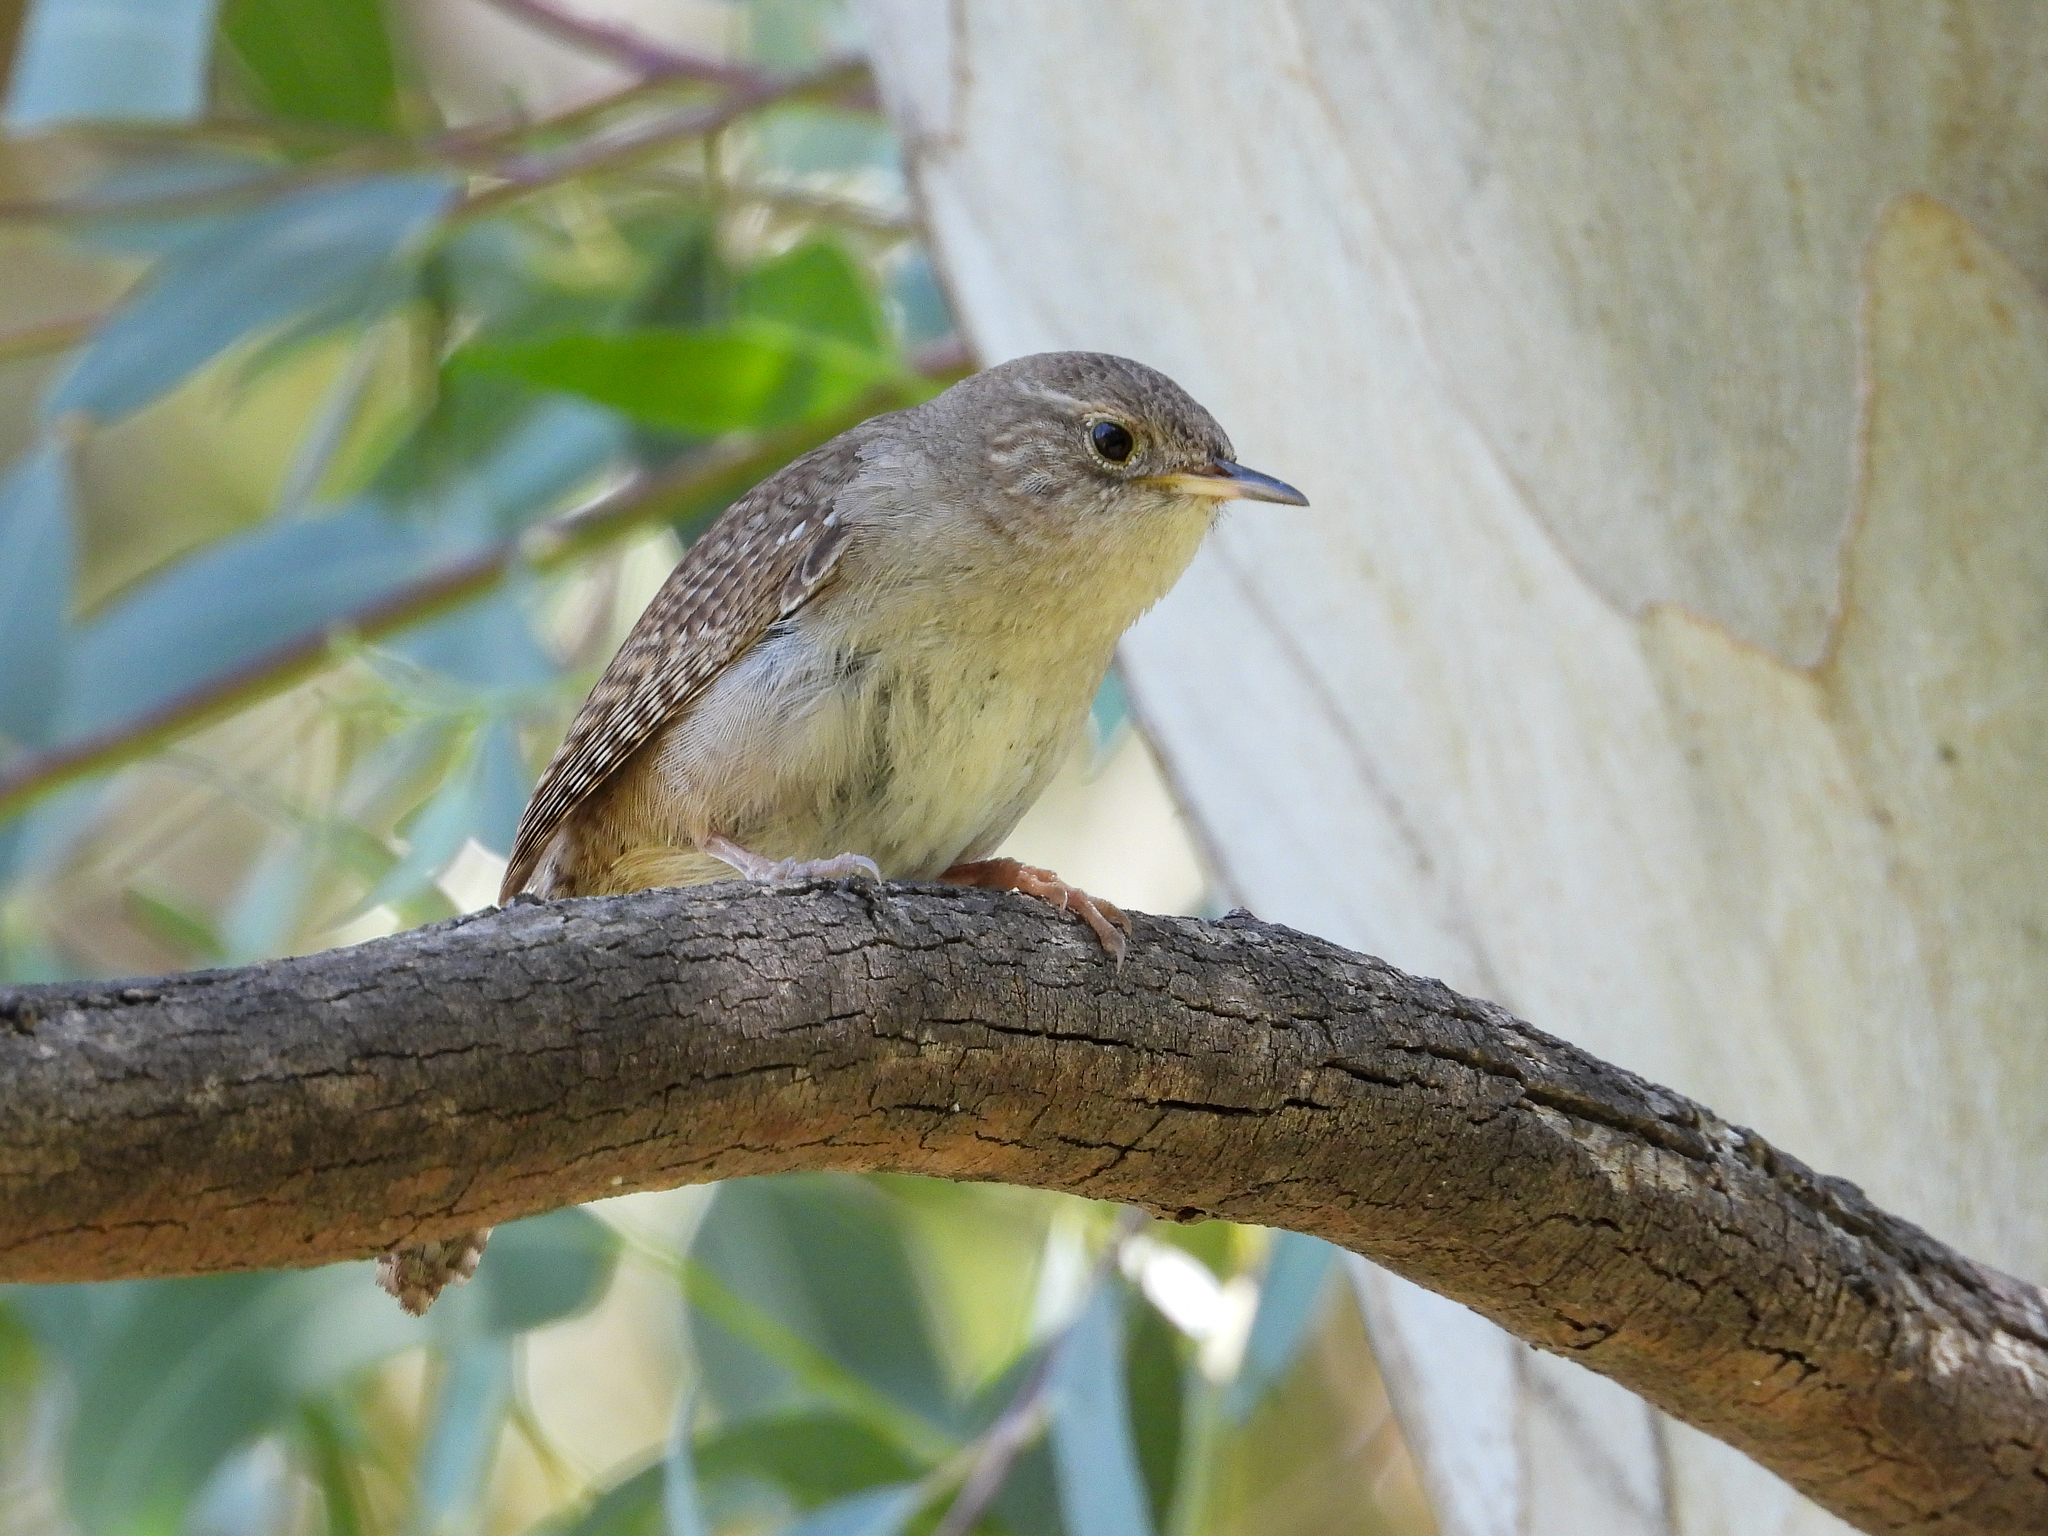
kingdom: Animalia
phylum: Chordata
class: Aves
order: Passeriformes
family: Troglodytidae
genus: Troglodytes
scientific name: Troglodytes aedon
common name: House wren
